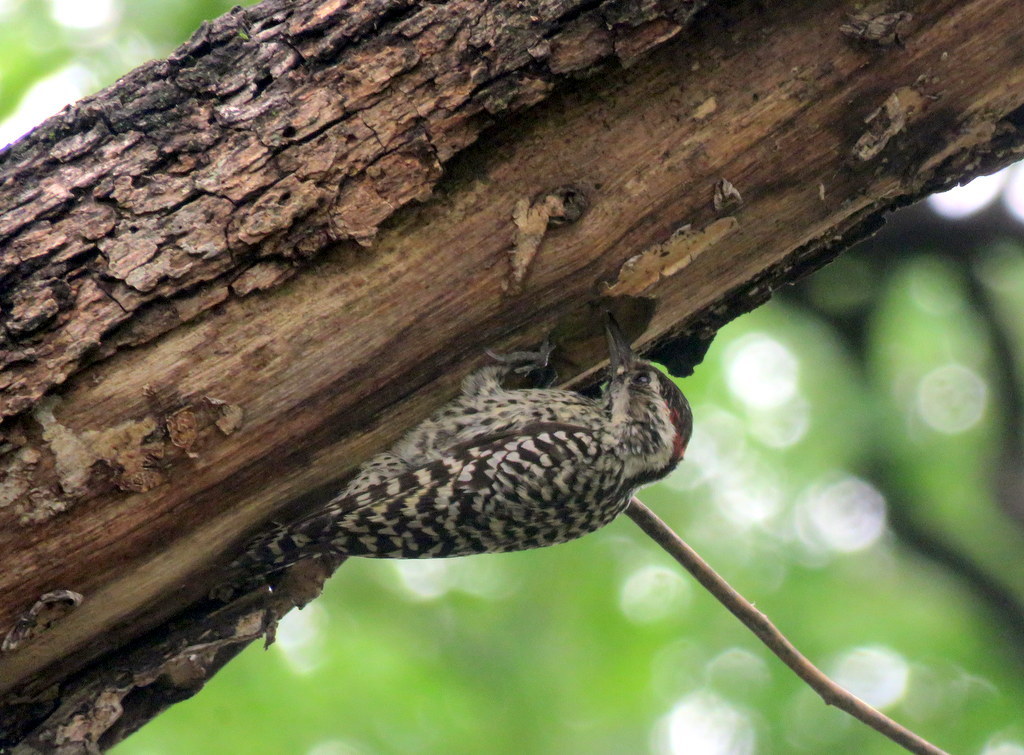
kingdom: Animalia
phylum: Chordata
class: Aves
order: Piciformes
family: Picidae
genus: Veniliornis
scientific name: Veniliornis mixtus
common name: Checkered woodpecker
